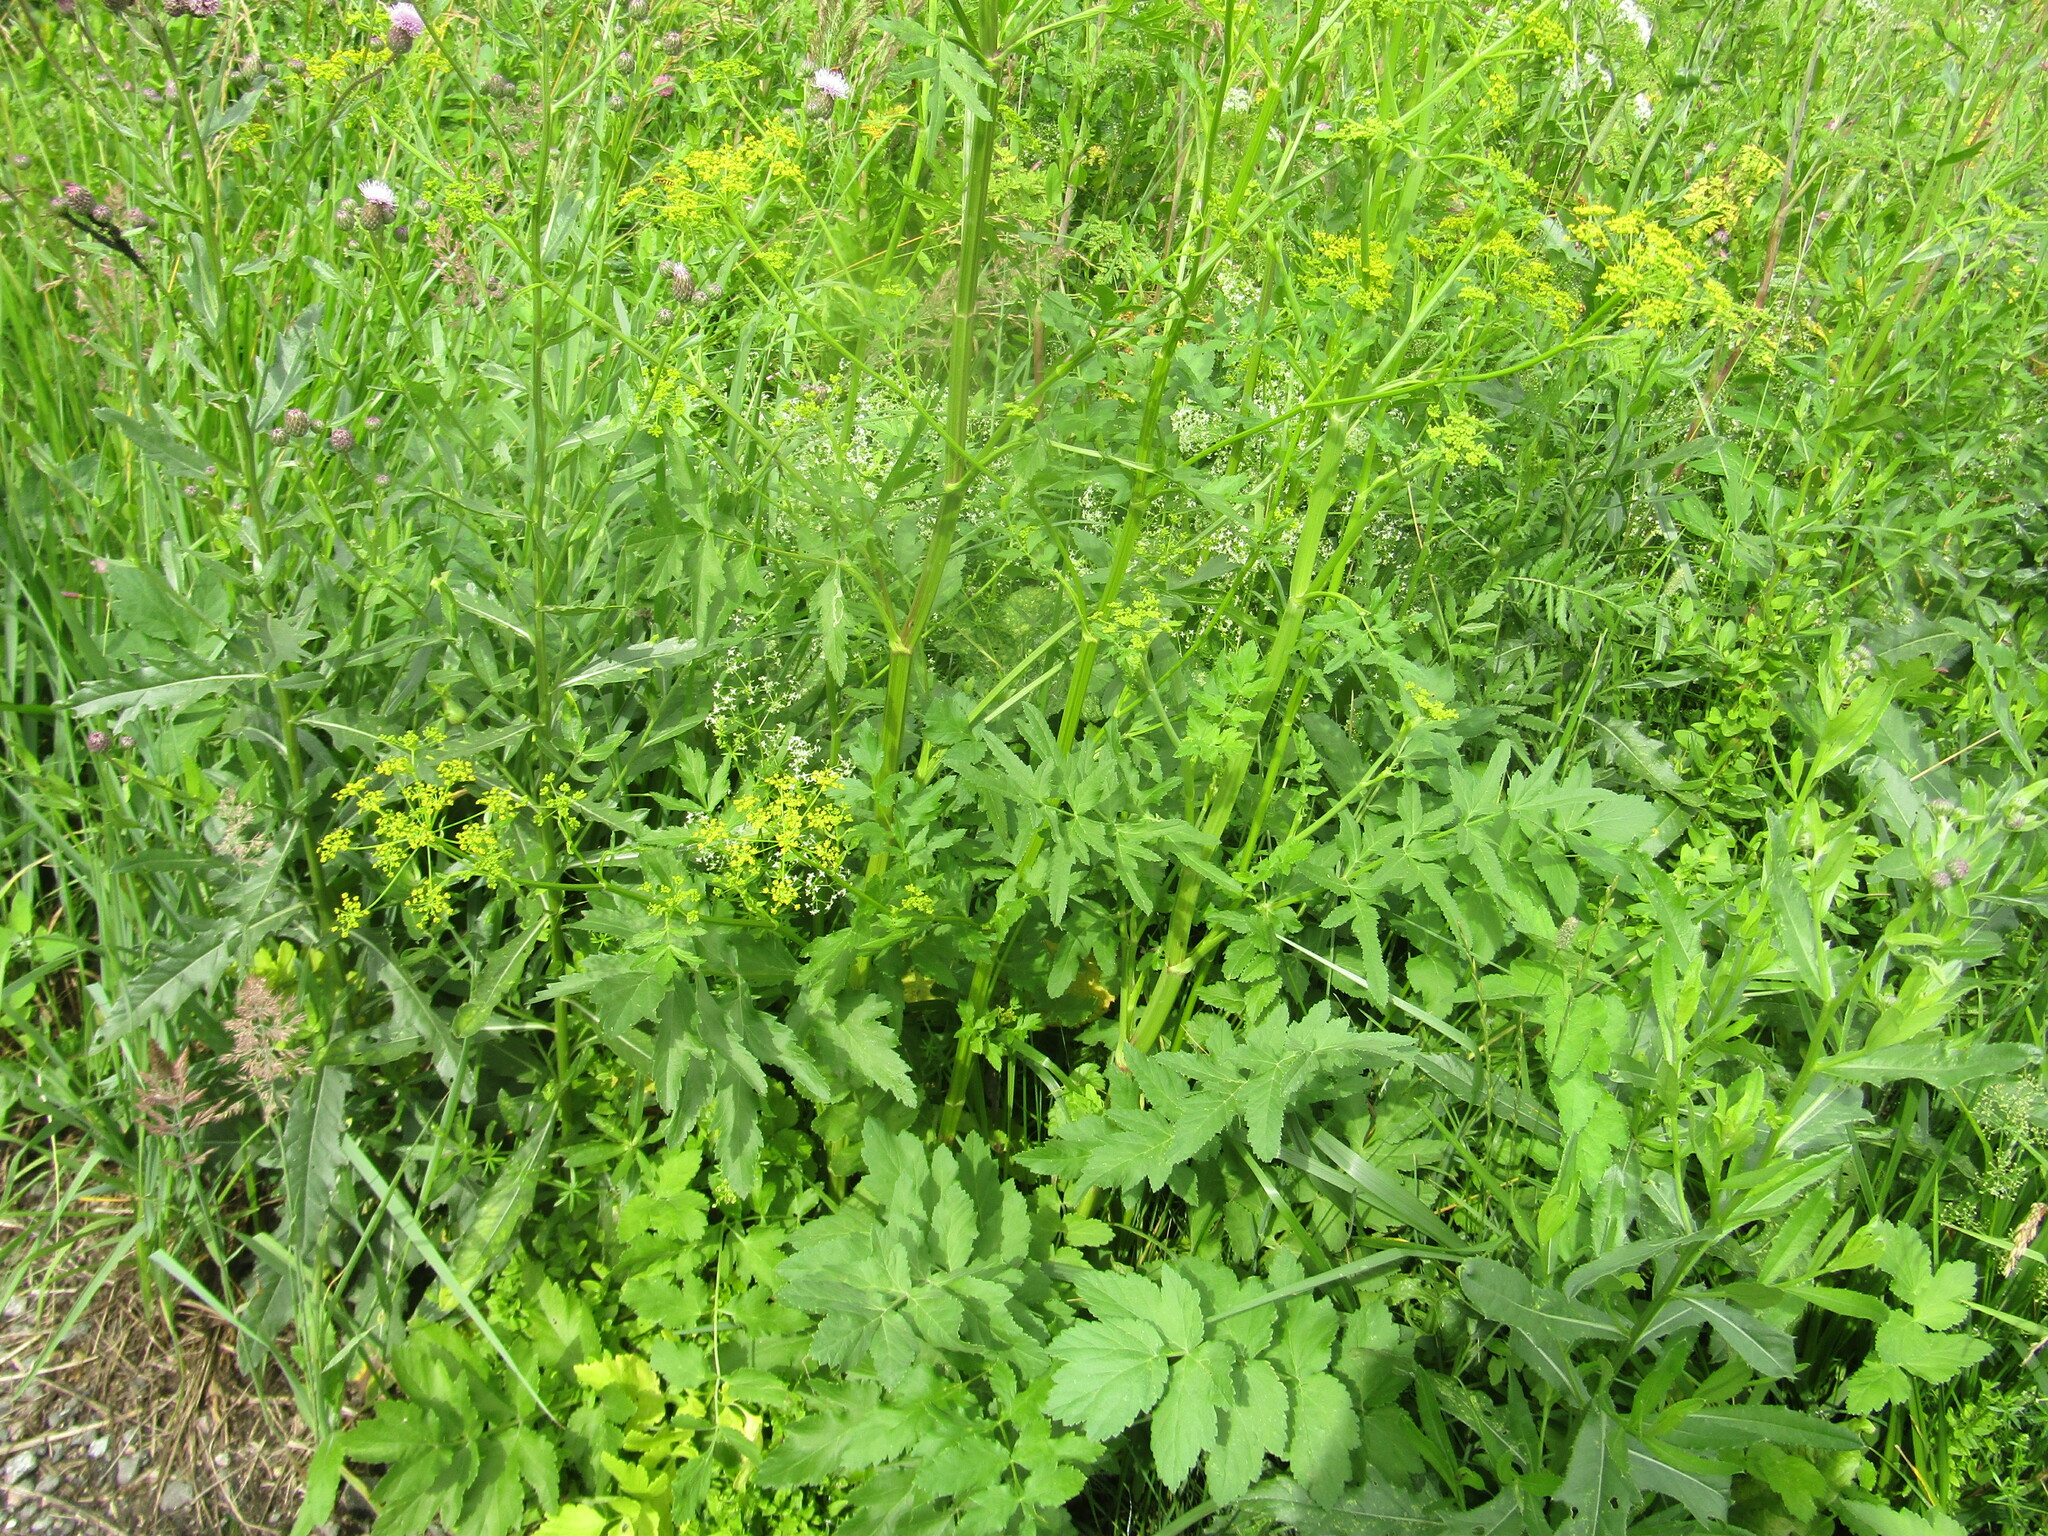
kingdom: Plantae
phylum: Tracheophyta
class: Magnoliopsida
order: Apiales
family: Apiaceae
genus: Pastinaca
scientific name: Pastinaca sativa
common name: Wild parsnip
